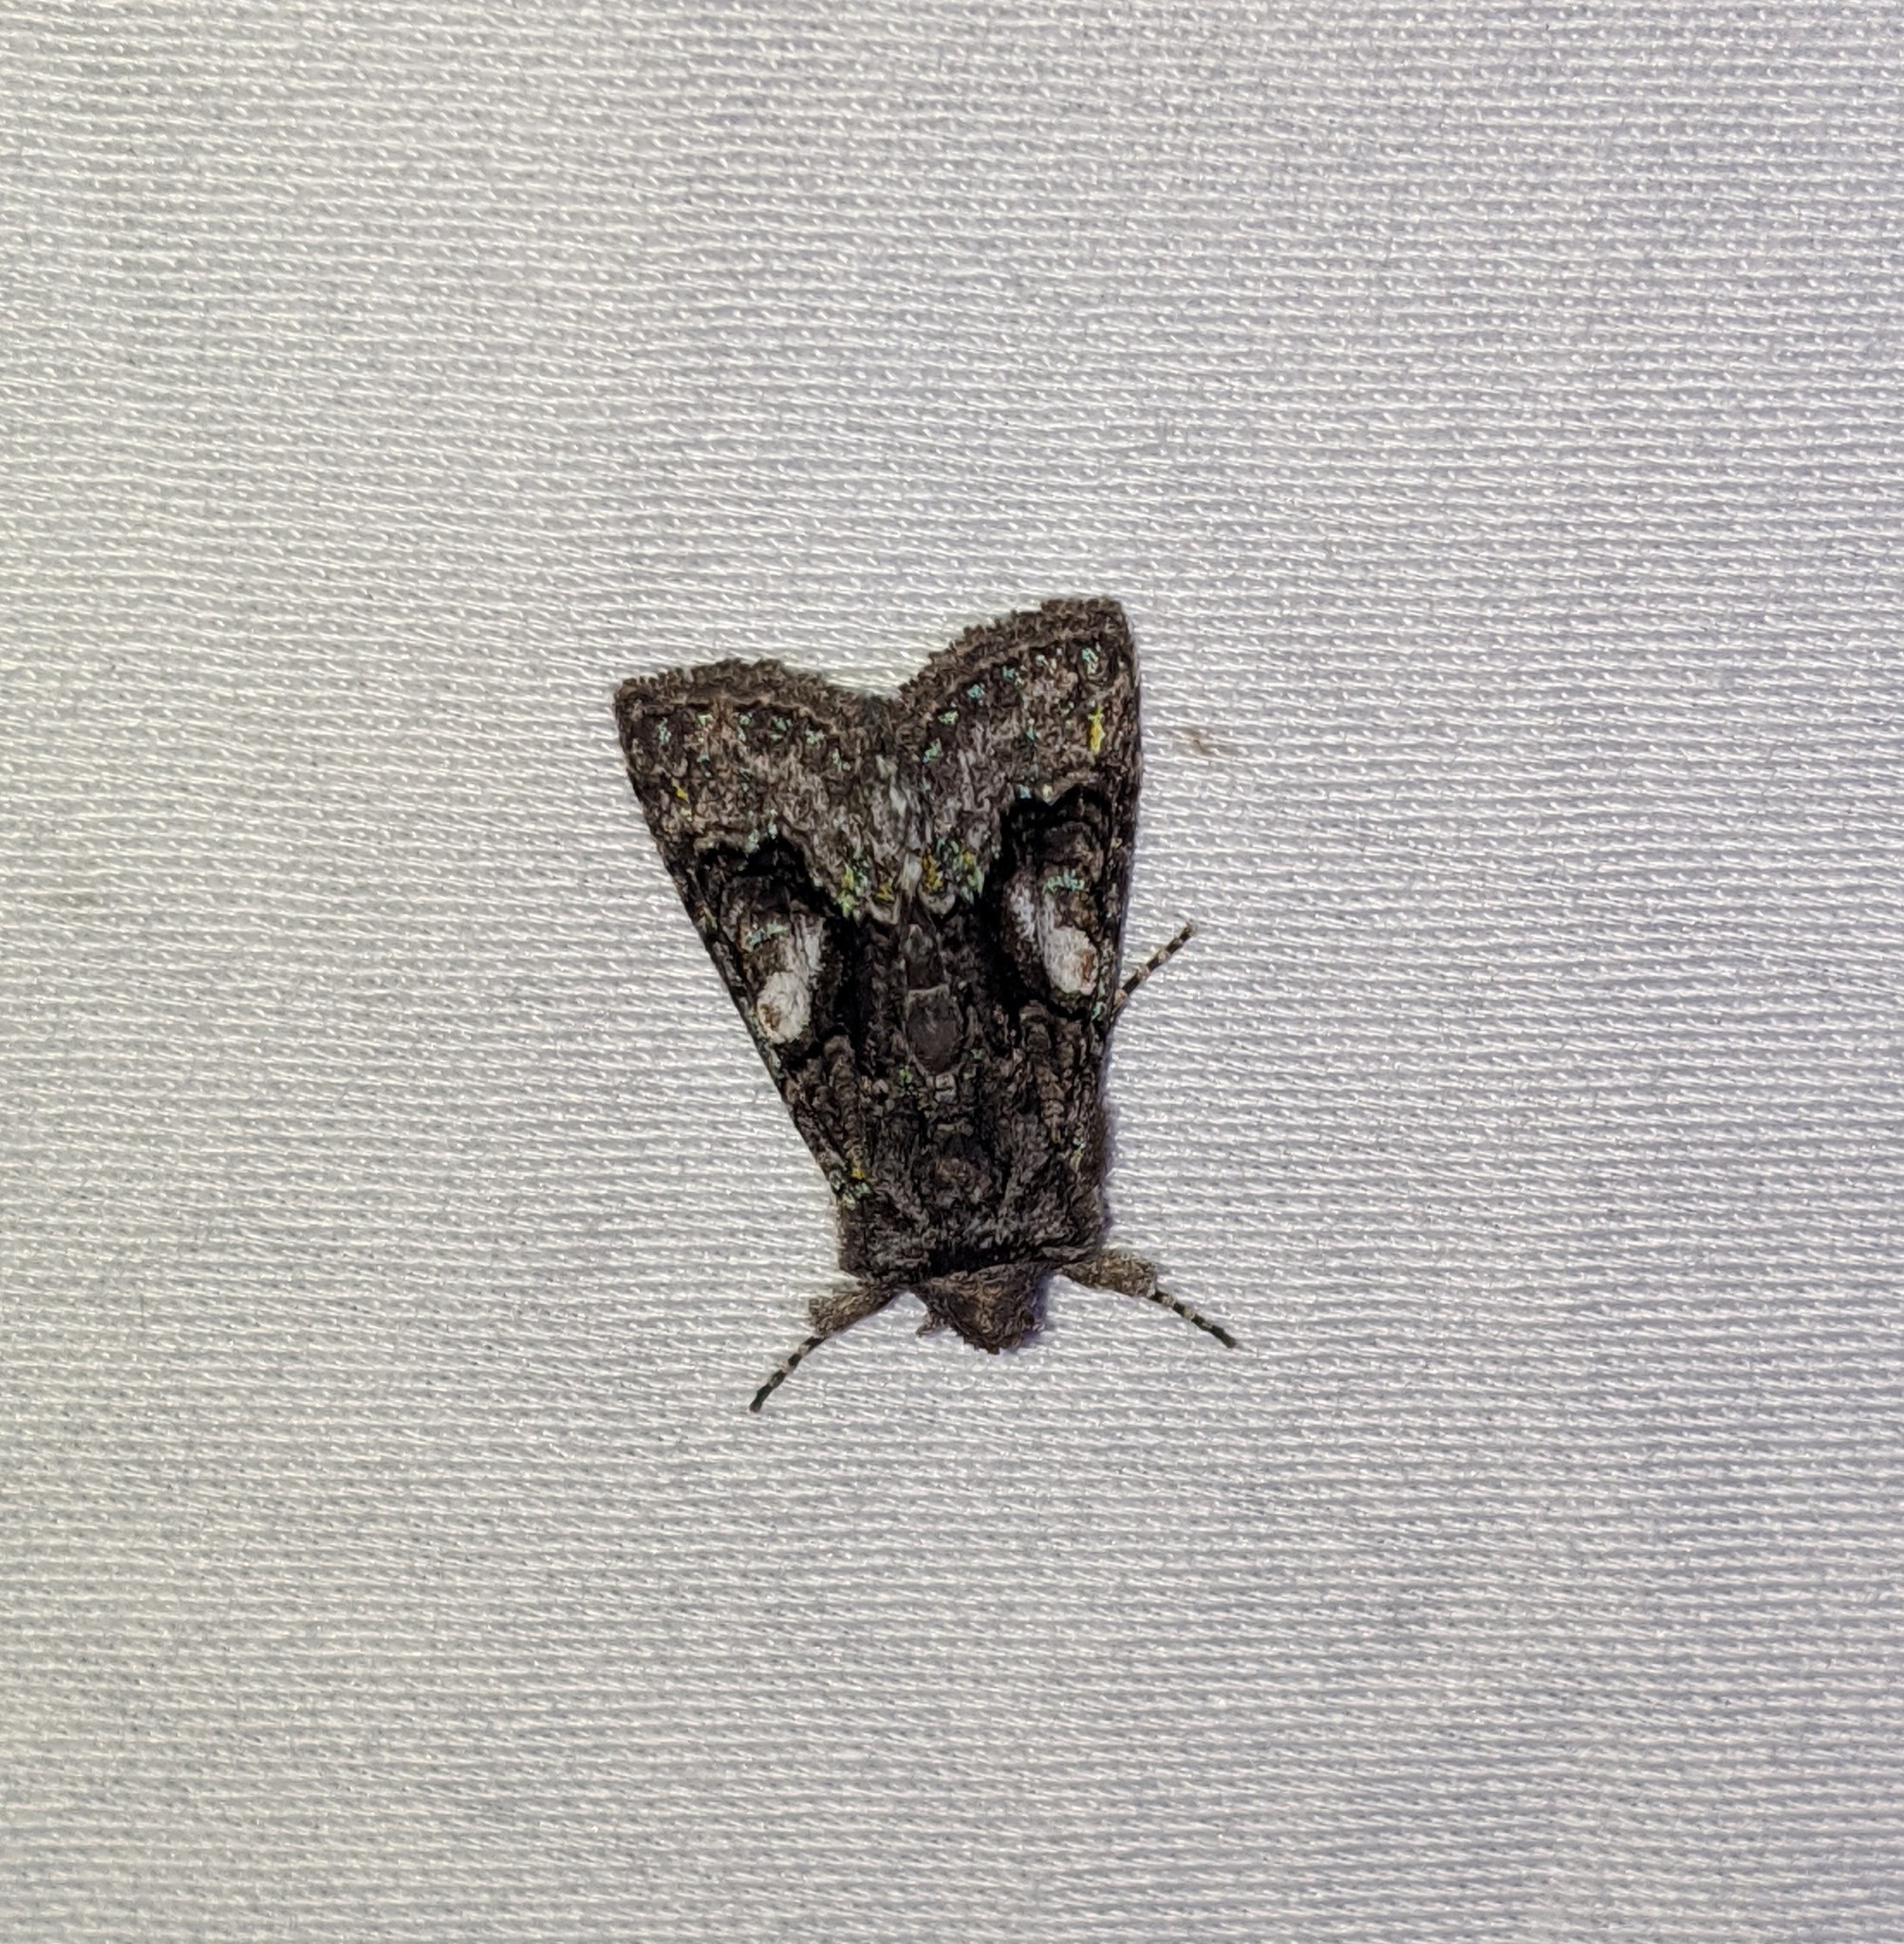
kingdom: Animalia
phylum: Arthropoda
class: Insecta
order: Lepidoptera
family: Noctuidae
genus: Behrensia
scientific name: Behrensia conchiformis
